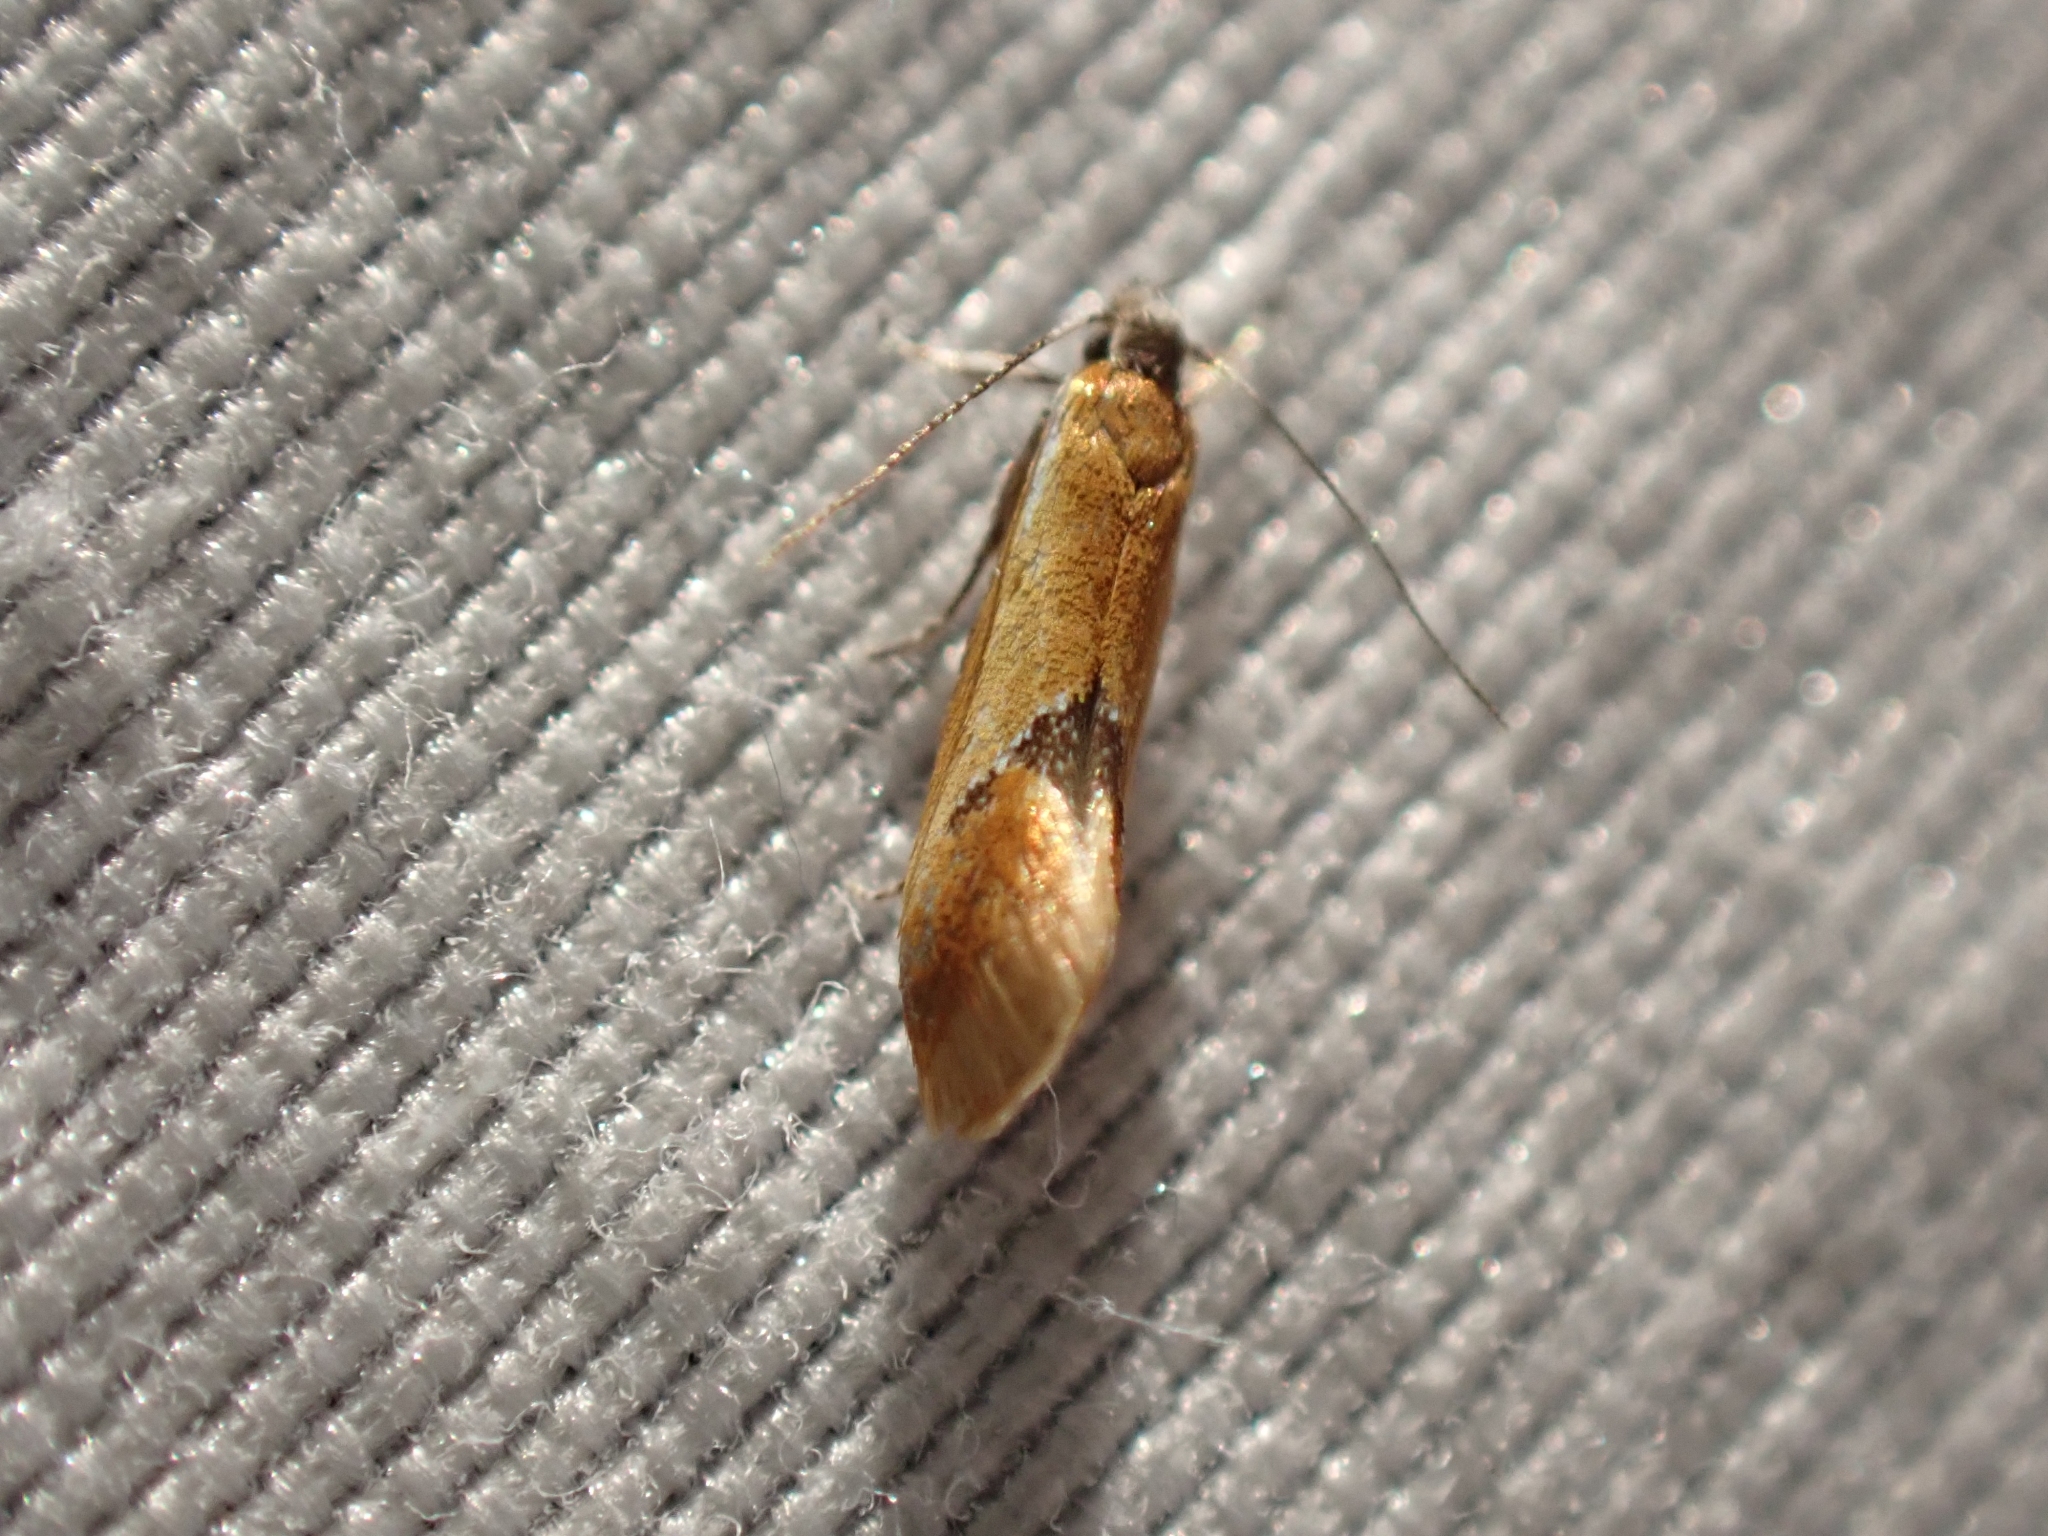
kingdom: Animalia
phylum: Arthropoda
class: Insecta
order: Lepidoptera
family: Oecophoridae
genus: Batia
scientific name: Batia lunaris
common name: Moth
